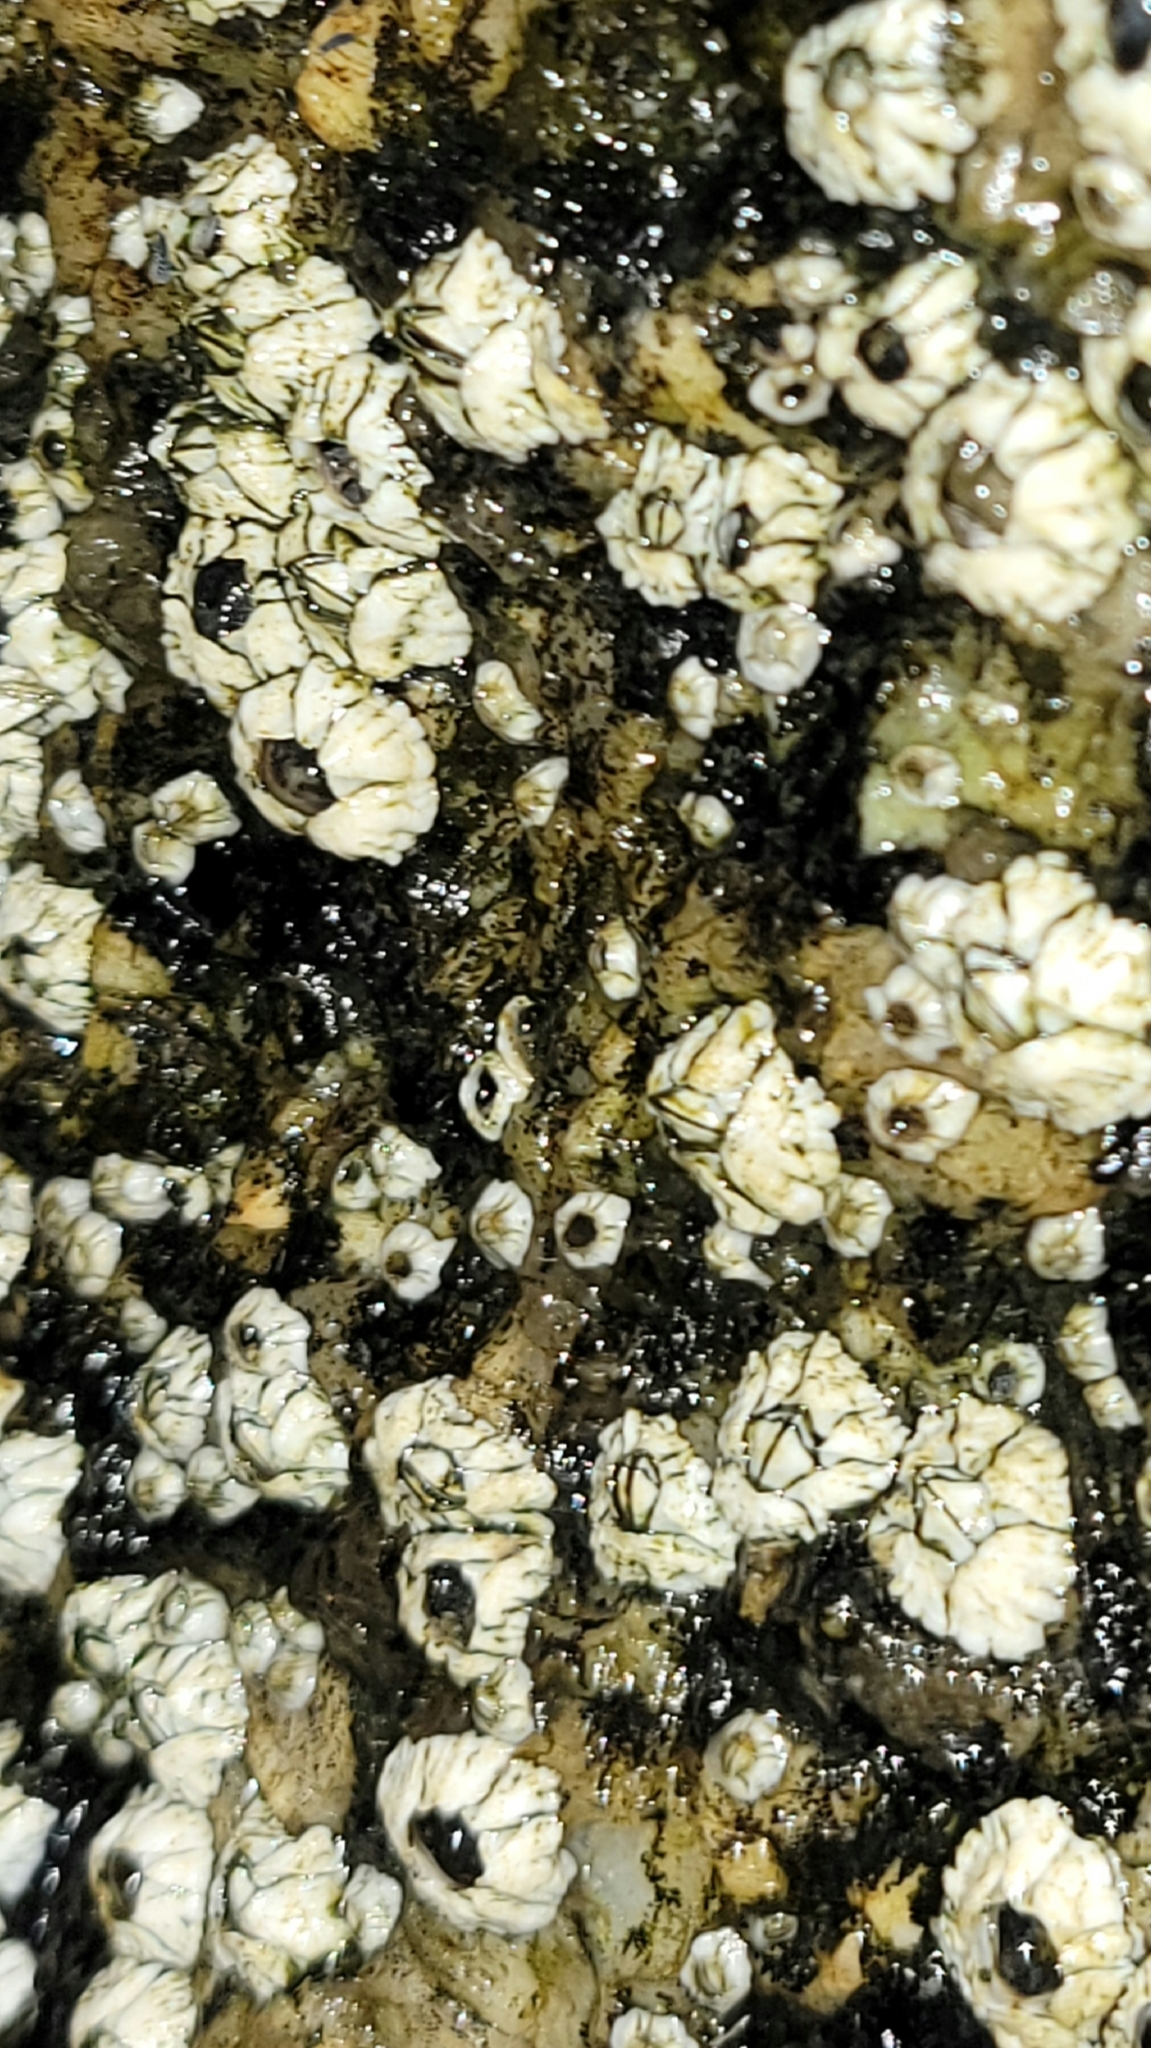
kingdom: Animalia
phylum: Arthropoda
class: Maxillopoda
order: Sessilia
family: Archaeobalanidae
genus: Semibalanus
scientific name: Semibalanus balanoides
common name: Acorn barnacle
